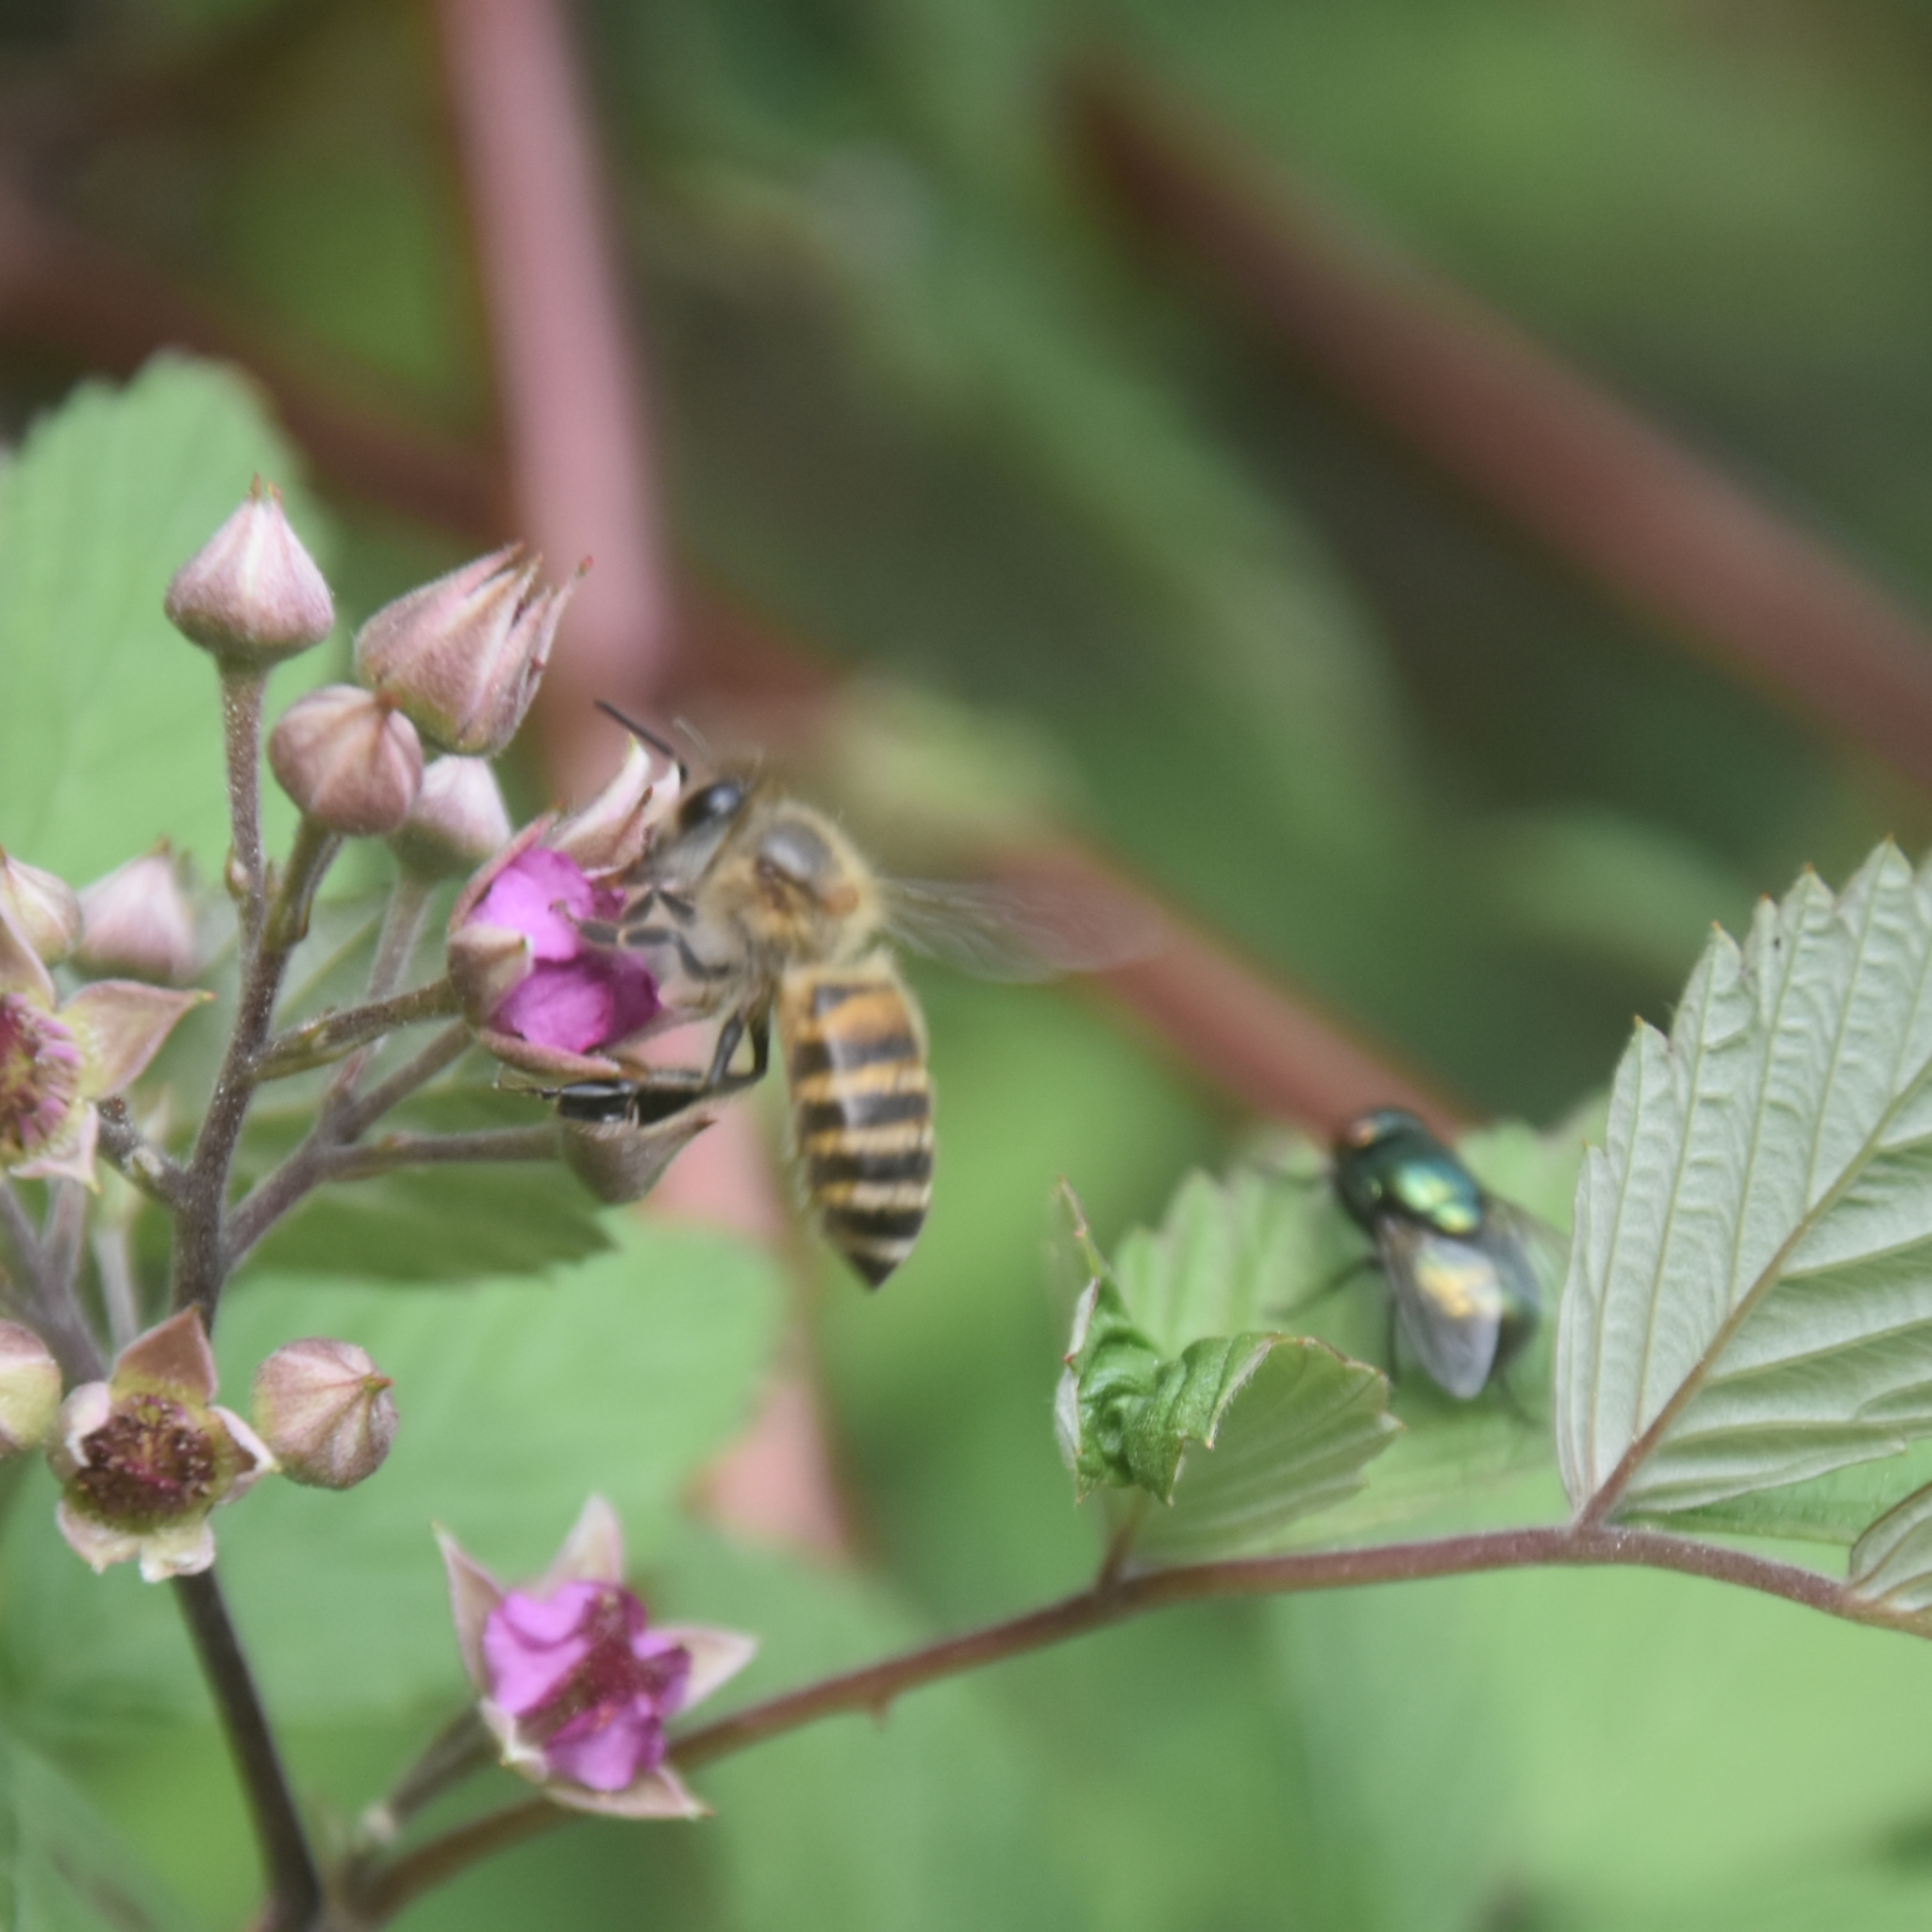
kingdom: Animalia
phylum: Arthropoda
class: Insecta
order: Hymenoptera
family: Apidae
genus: Apis
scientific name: Apis cerana
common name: Honey bee
